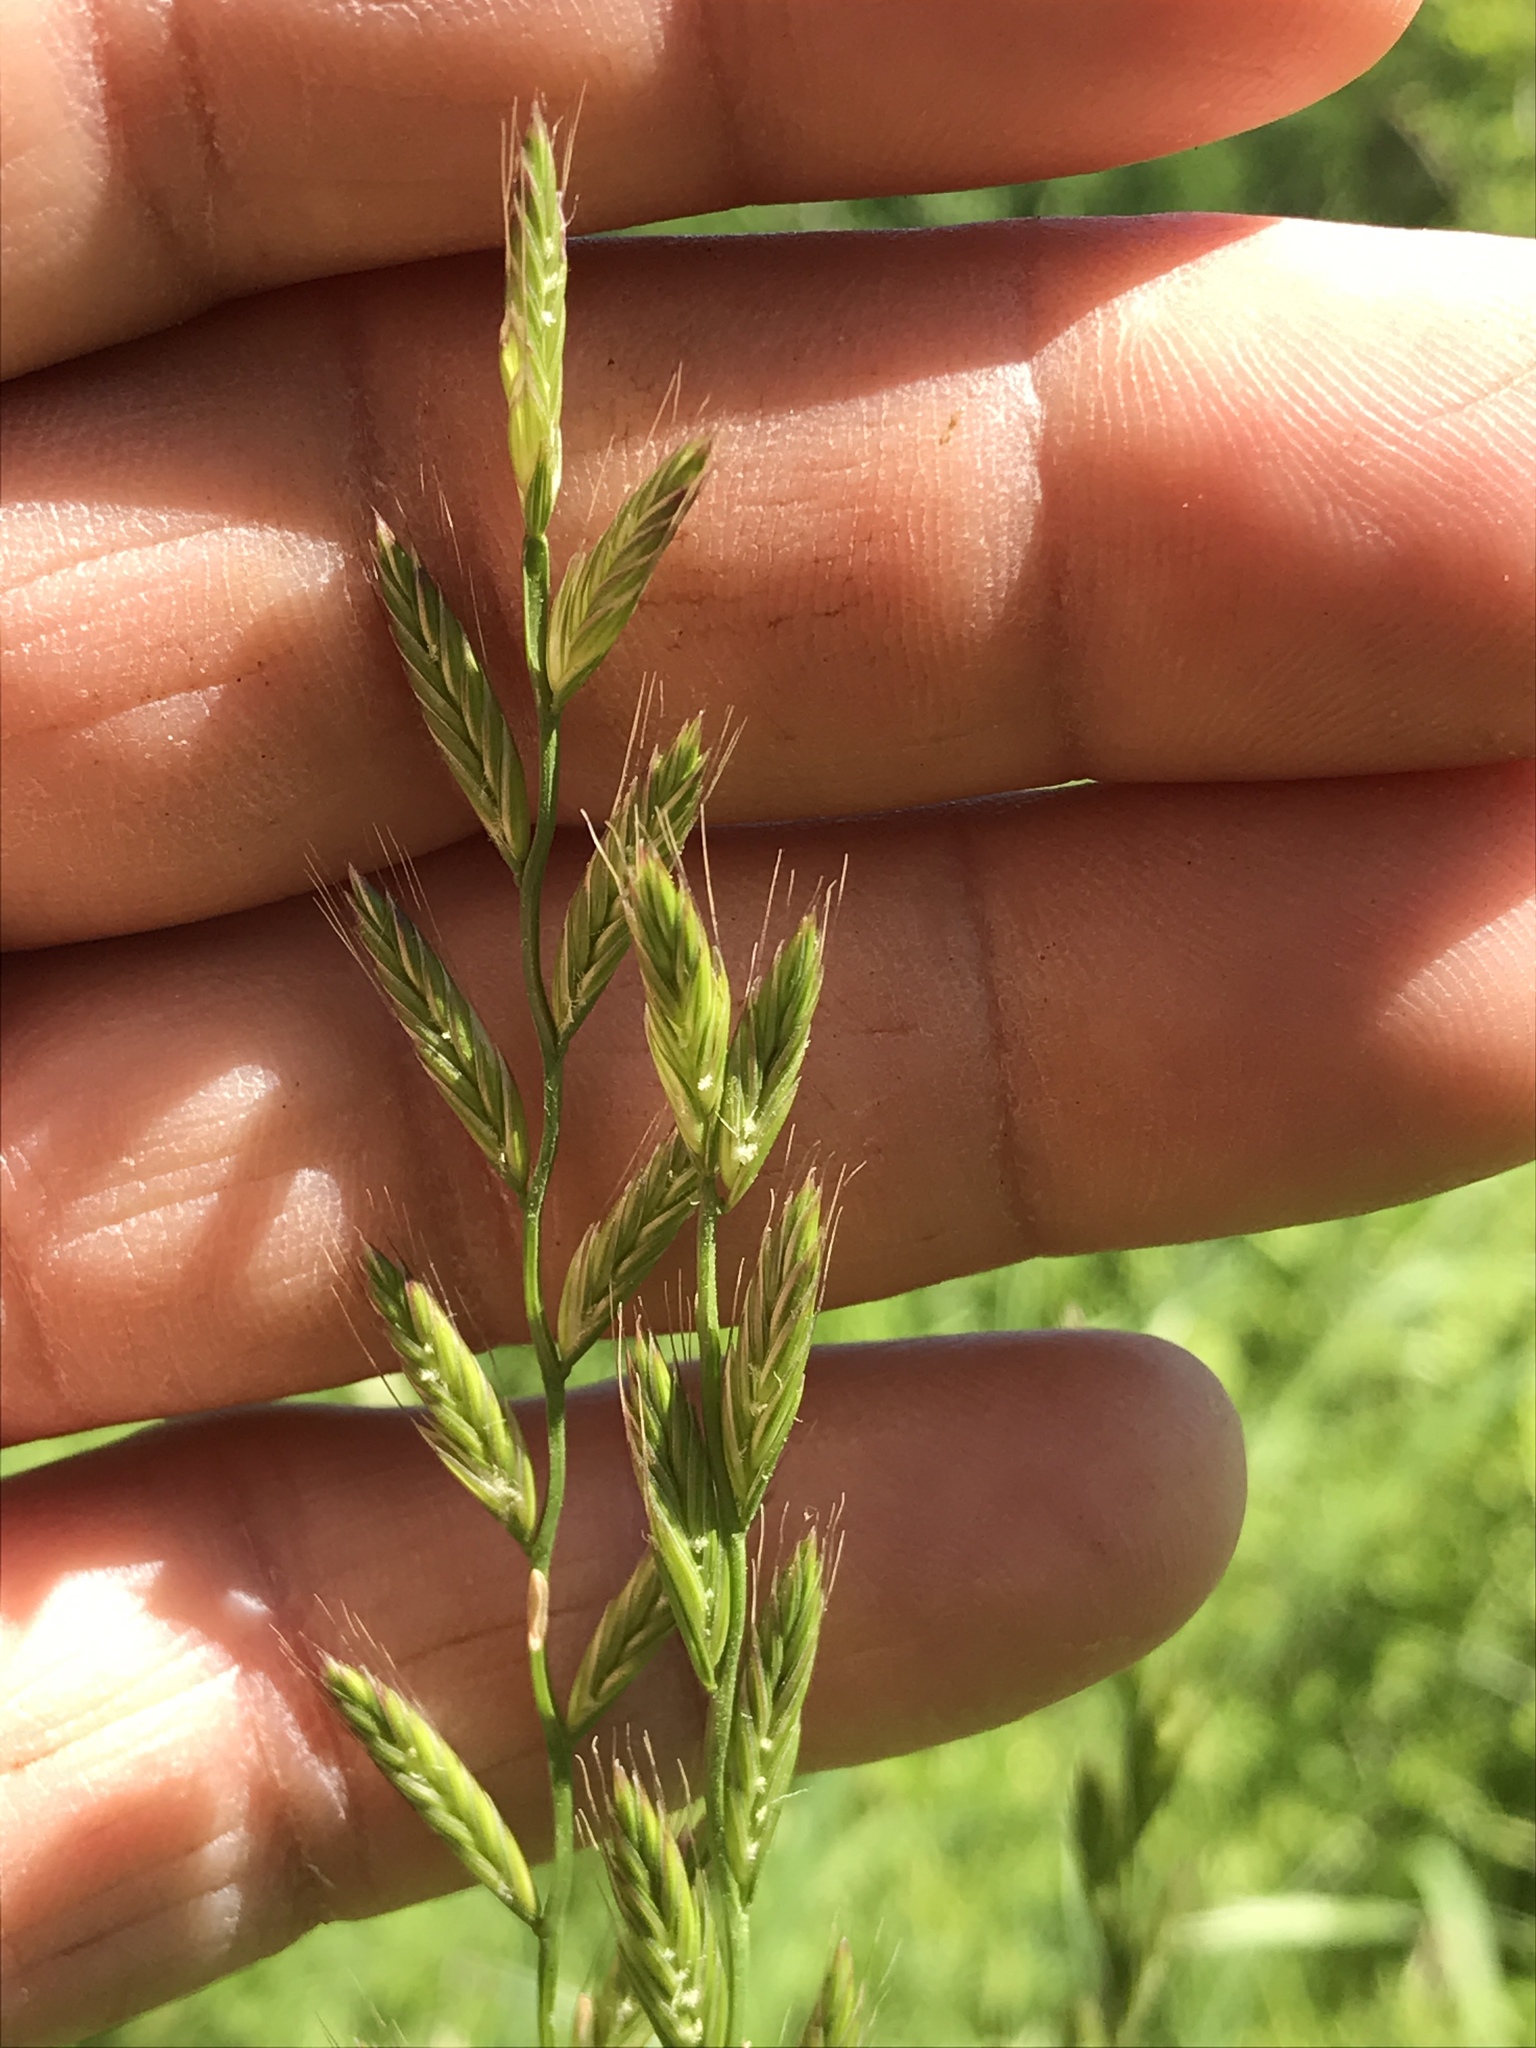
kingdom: Plantae
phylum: Tracheophyta
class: Liliopsida
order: Poales
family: Poaceae
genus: Lolium
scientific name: Lolium perenne
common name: Perennial ryegrass
